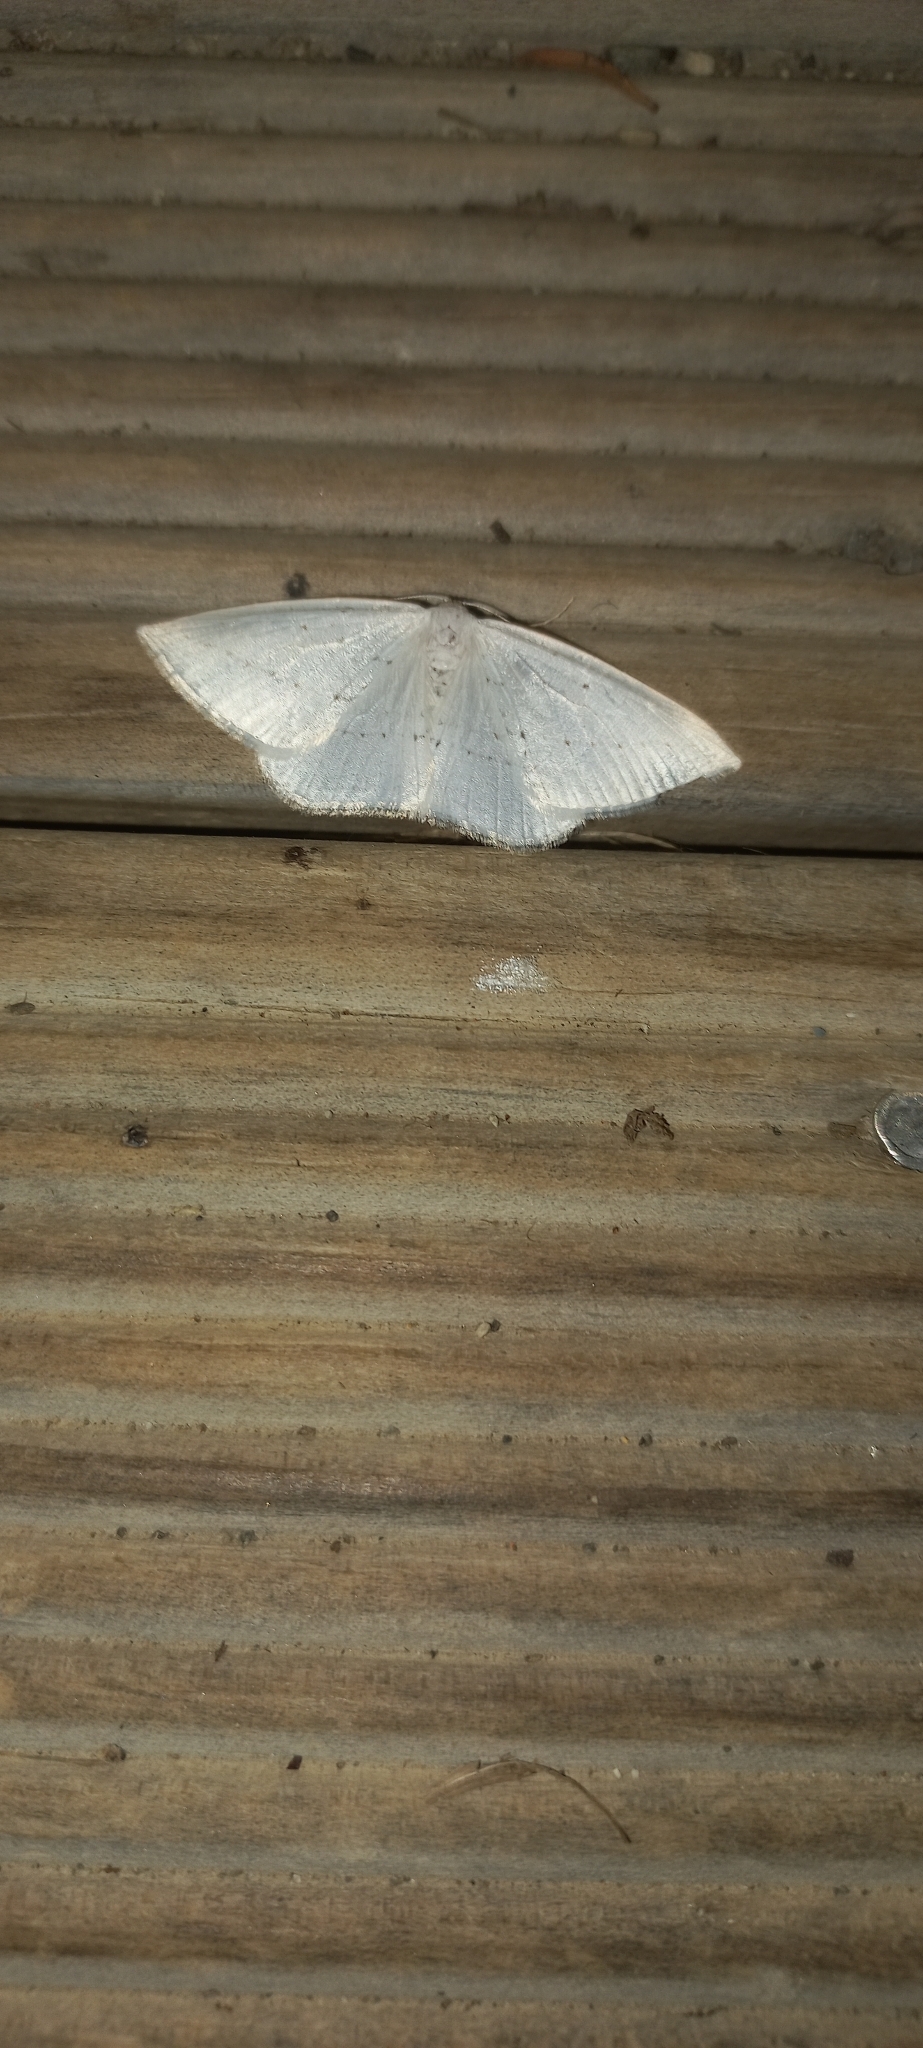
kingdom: Animalia
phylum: Arthropoda
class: Insecta
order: Lepidoptera
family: Geometridae
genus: Orthoclydon
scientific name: Orthoclydon praefectata
